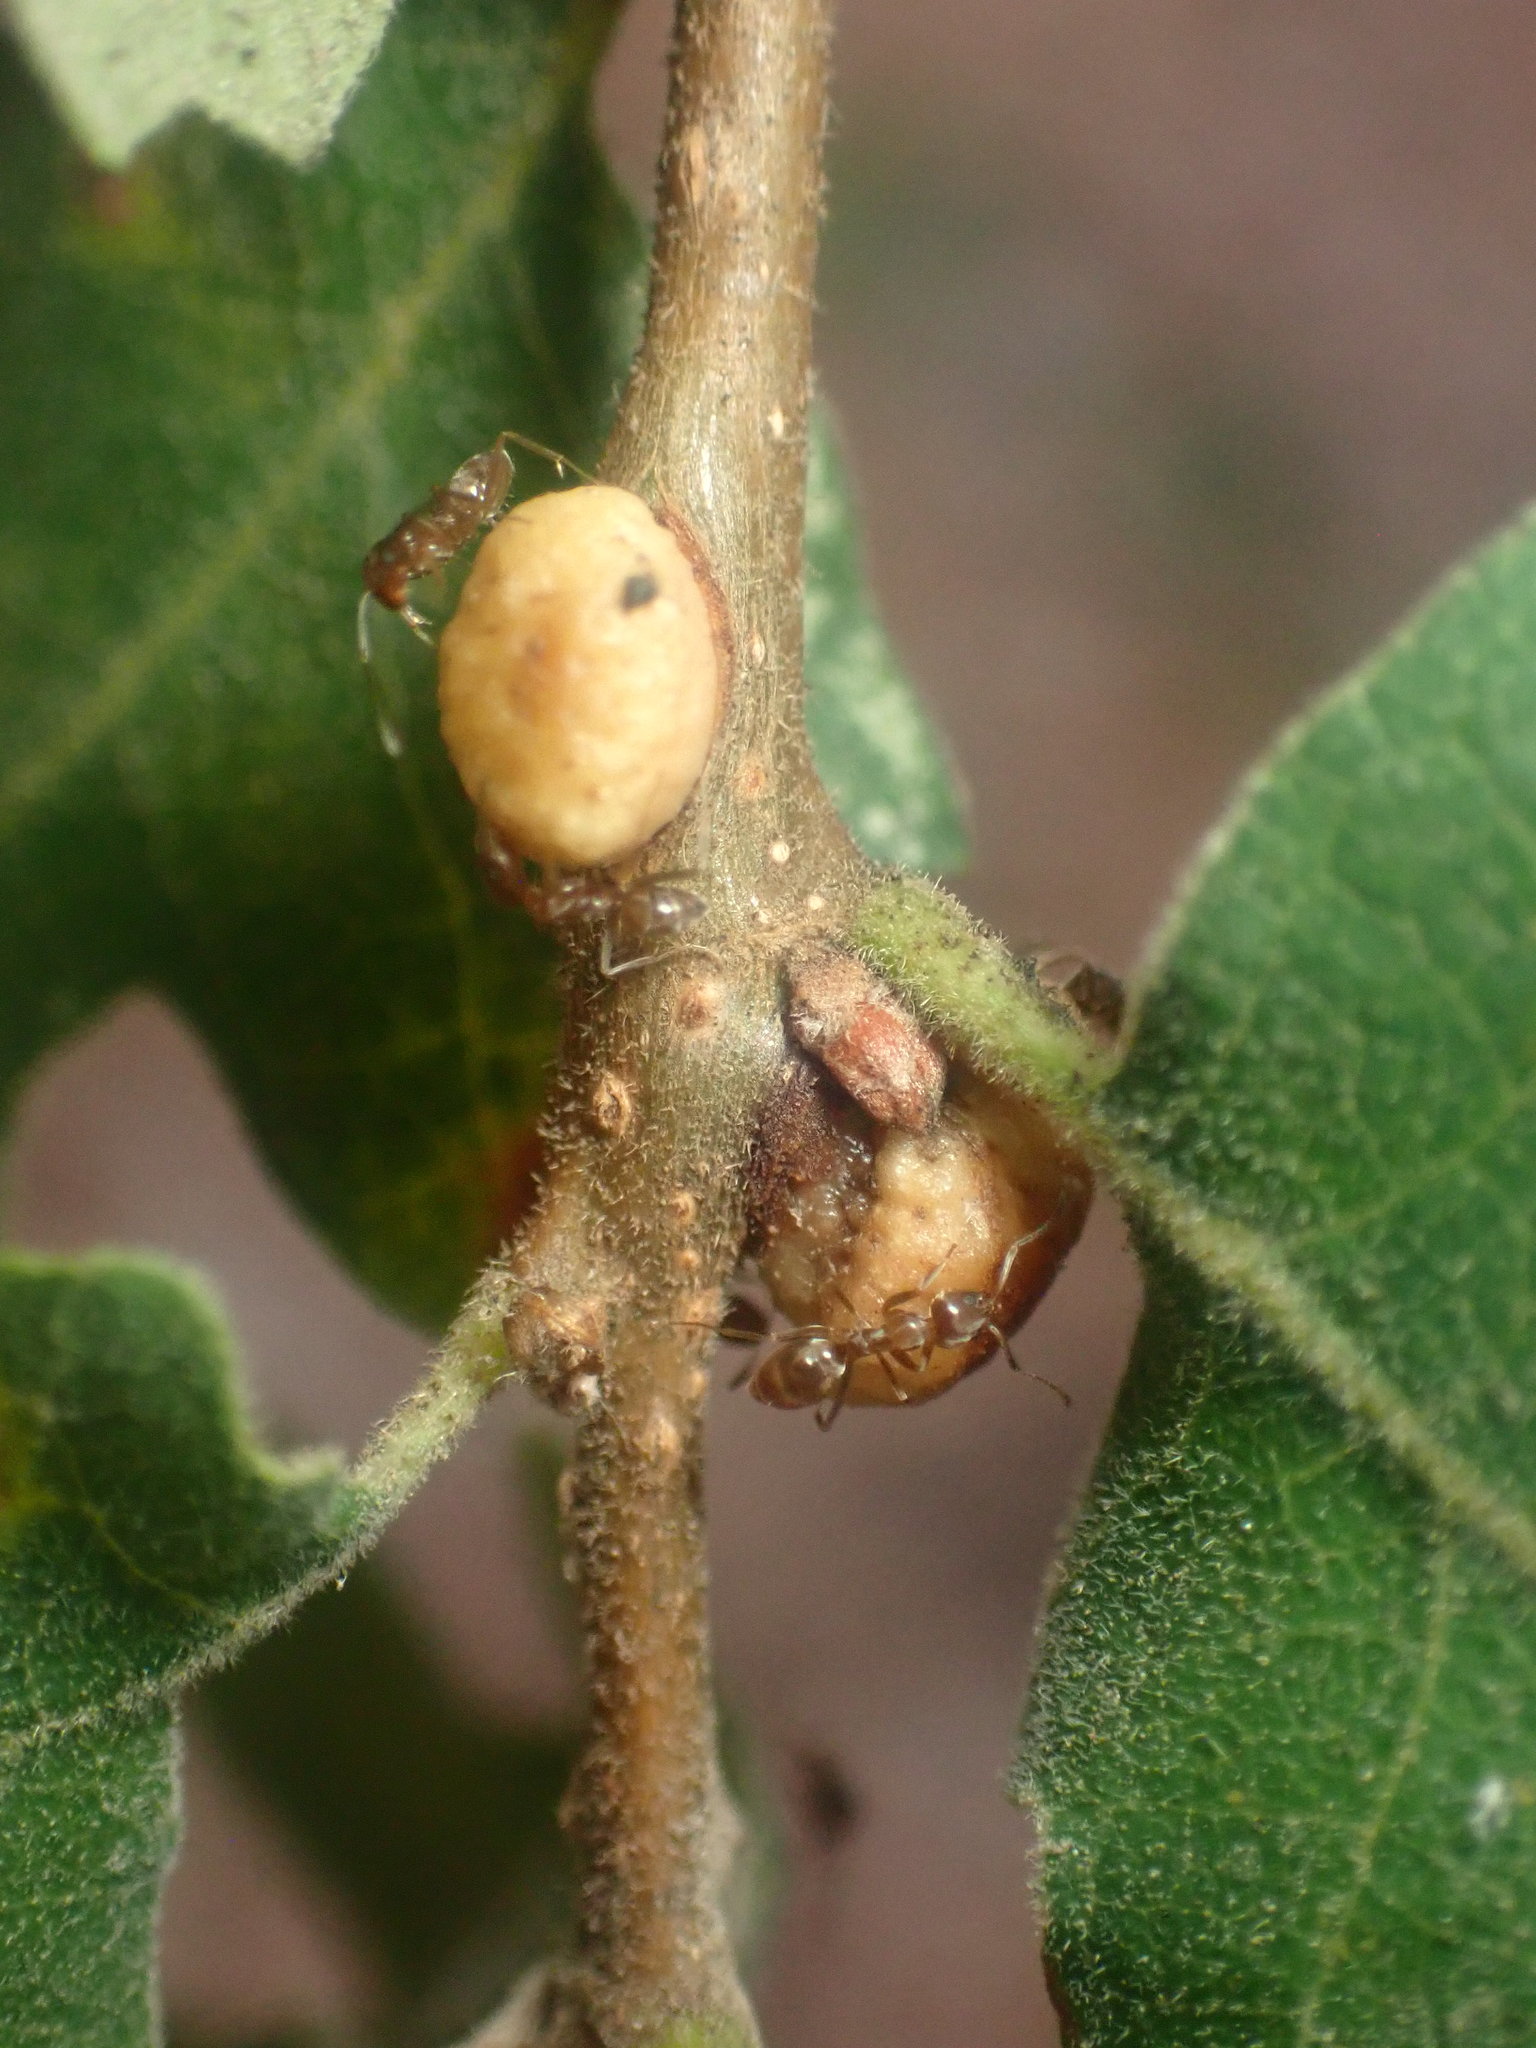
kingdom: Animalia
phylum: Arthropoda
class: Insecta
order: Hymenoptera
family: Cynipidae
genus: Disholcaspis
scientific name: Disholcaspis
